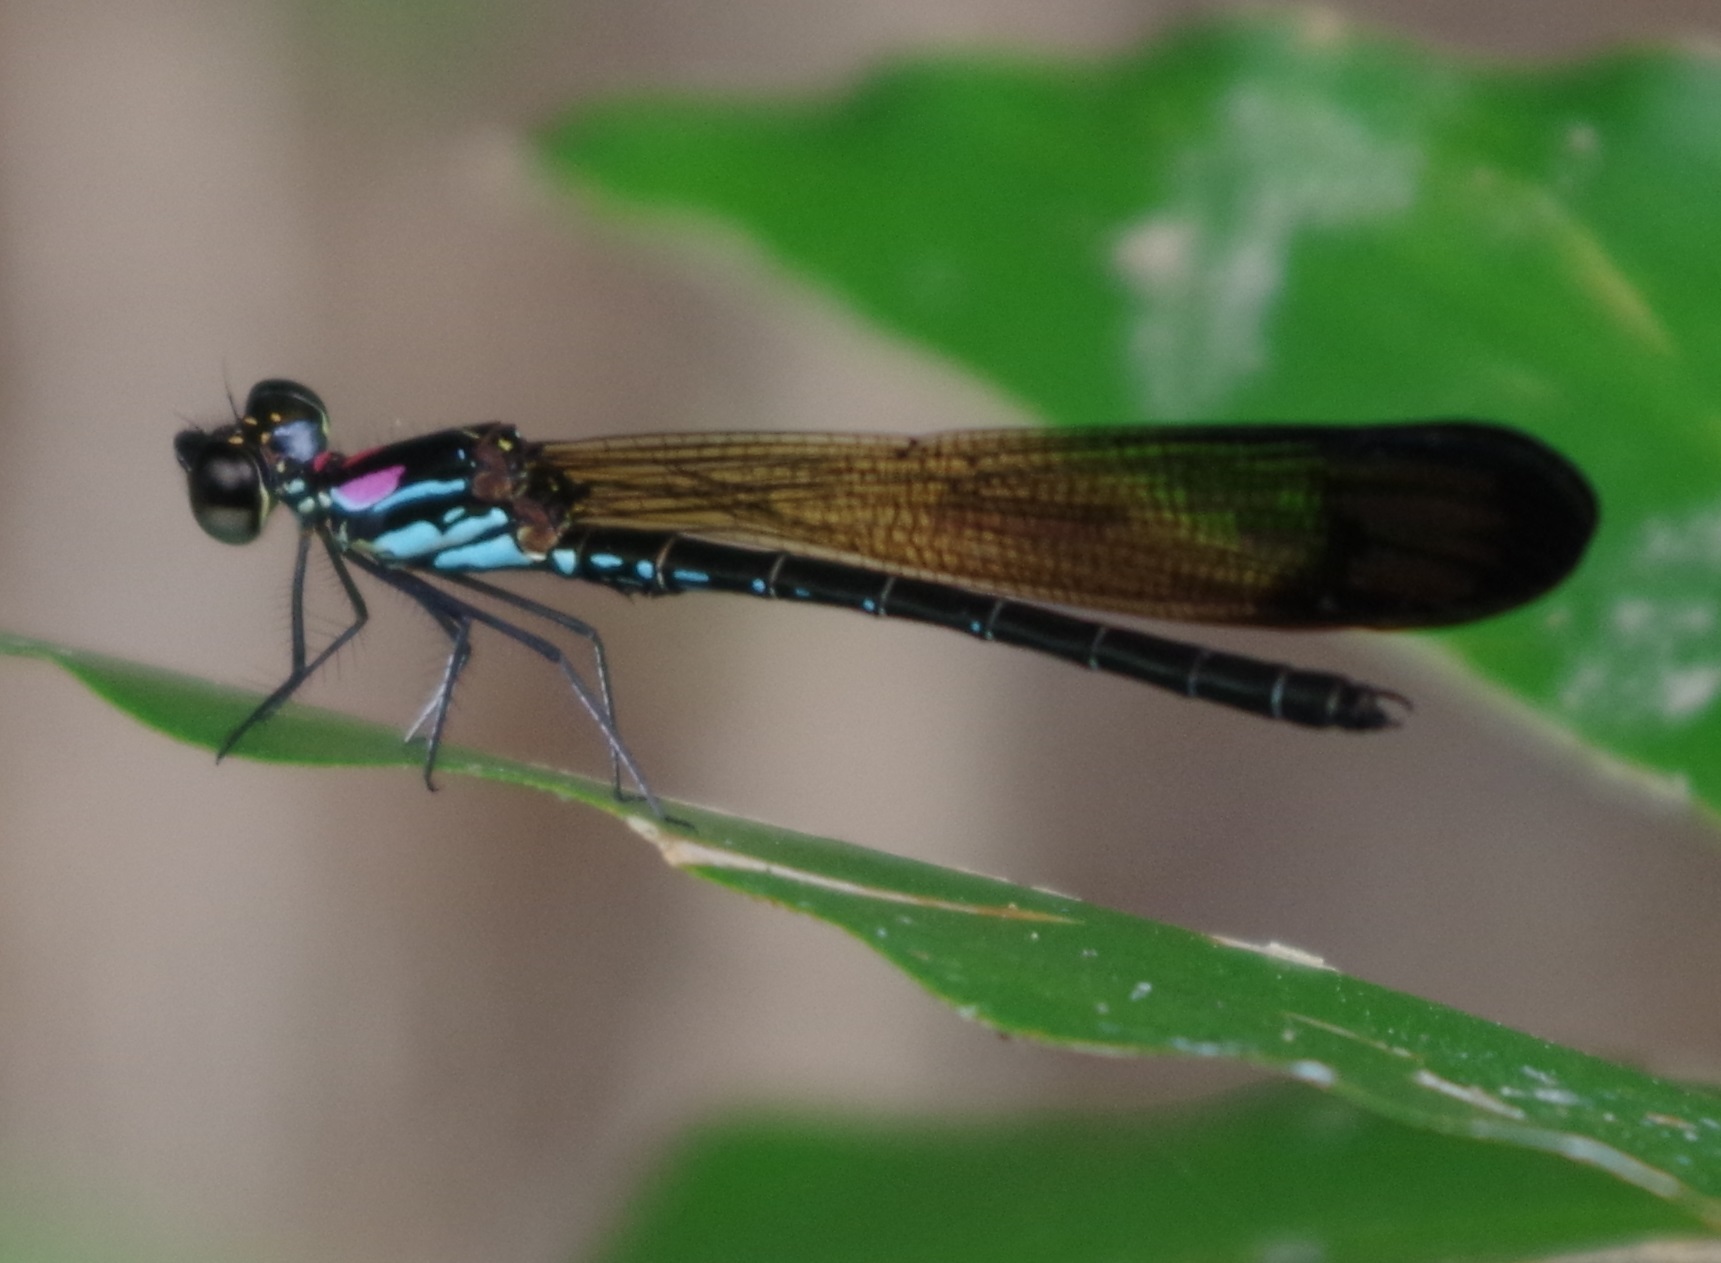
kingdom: Animalia
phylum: Arthropoda
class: Insecta
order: Odonata
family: Chlorocyphidae
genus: Heliocypha
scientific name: Heliocypha biforata
